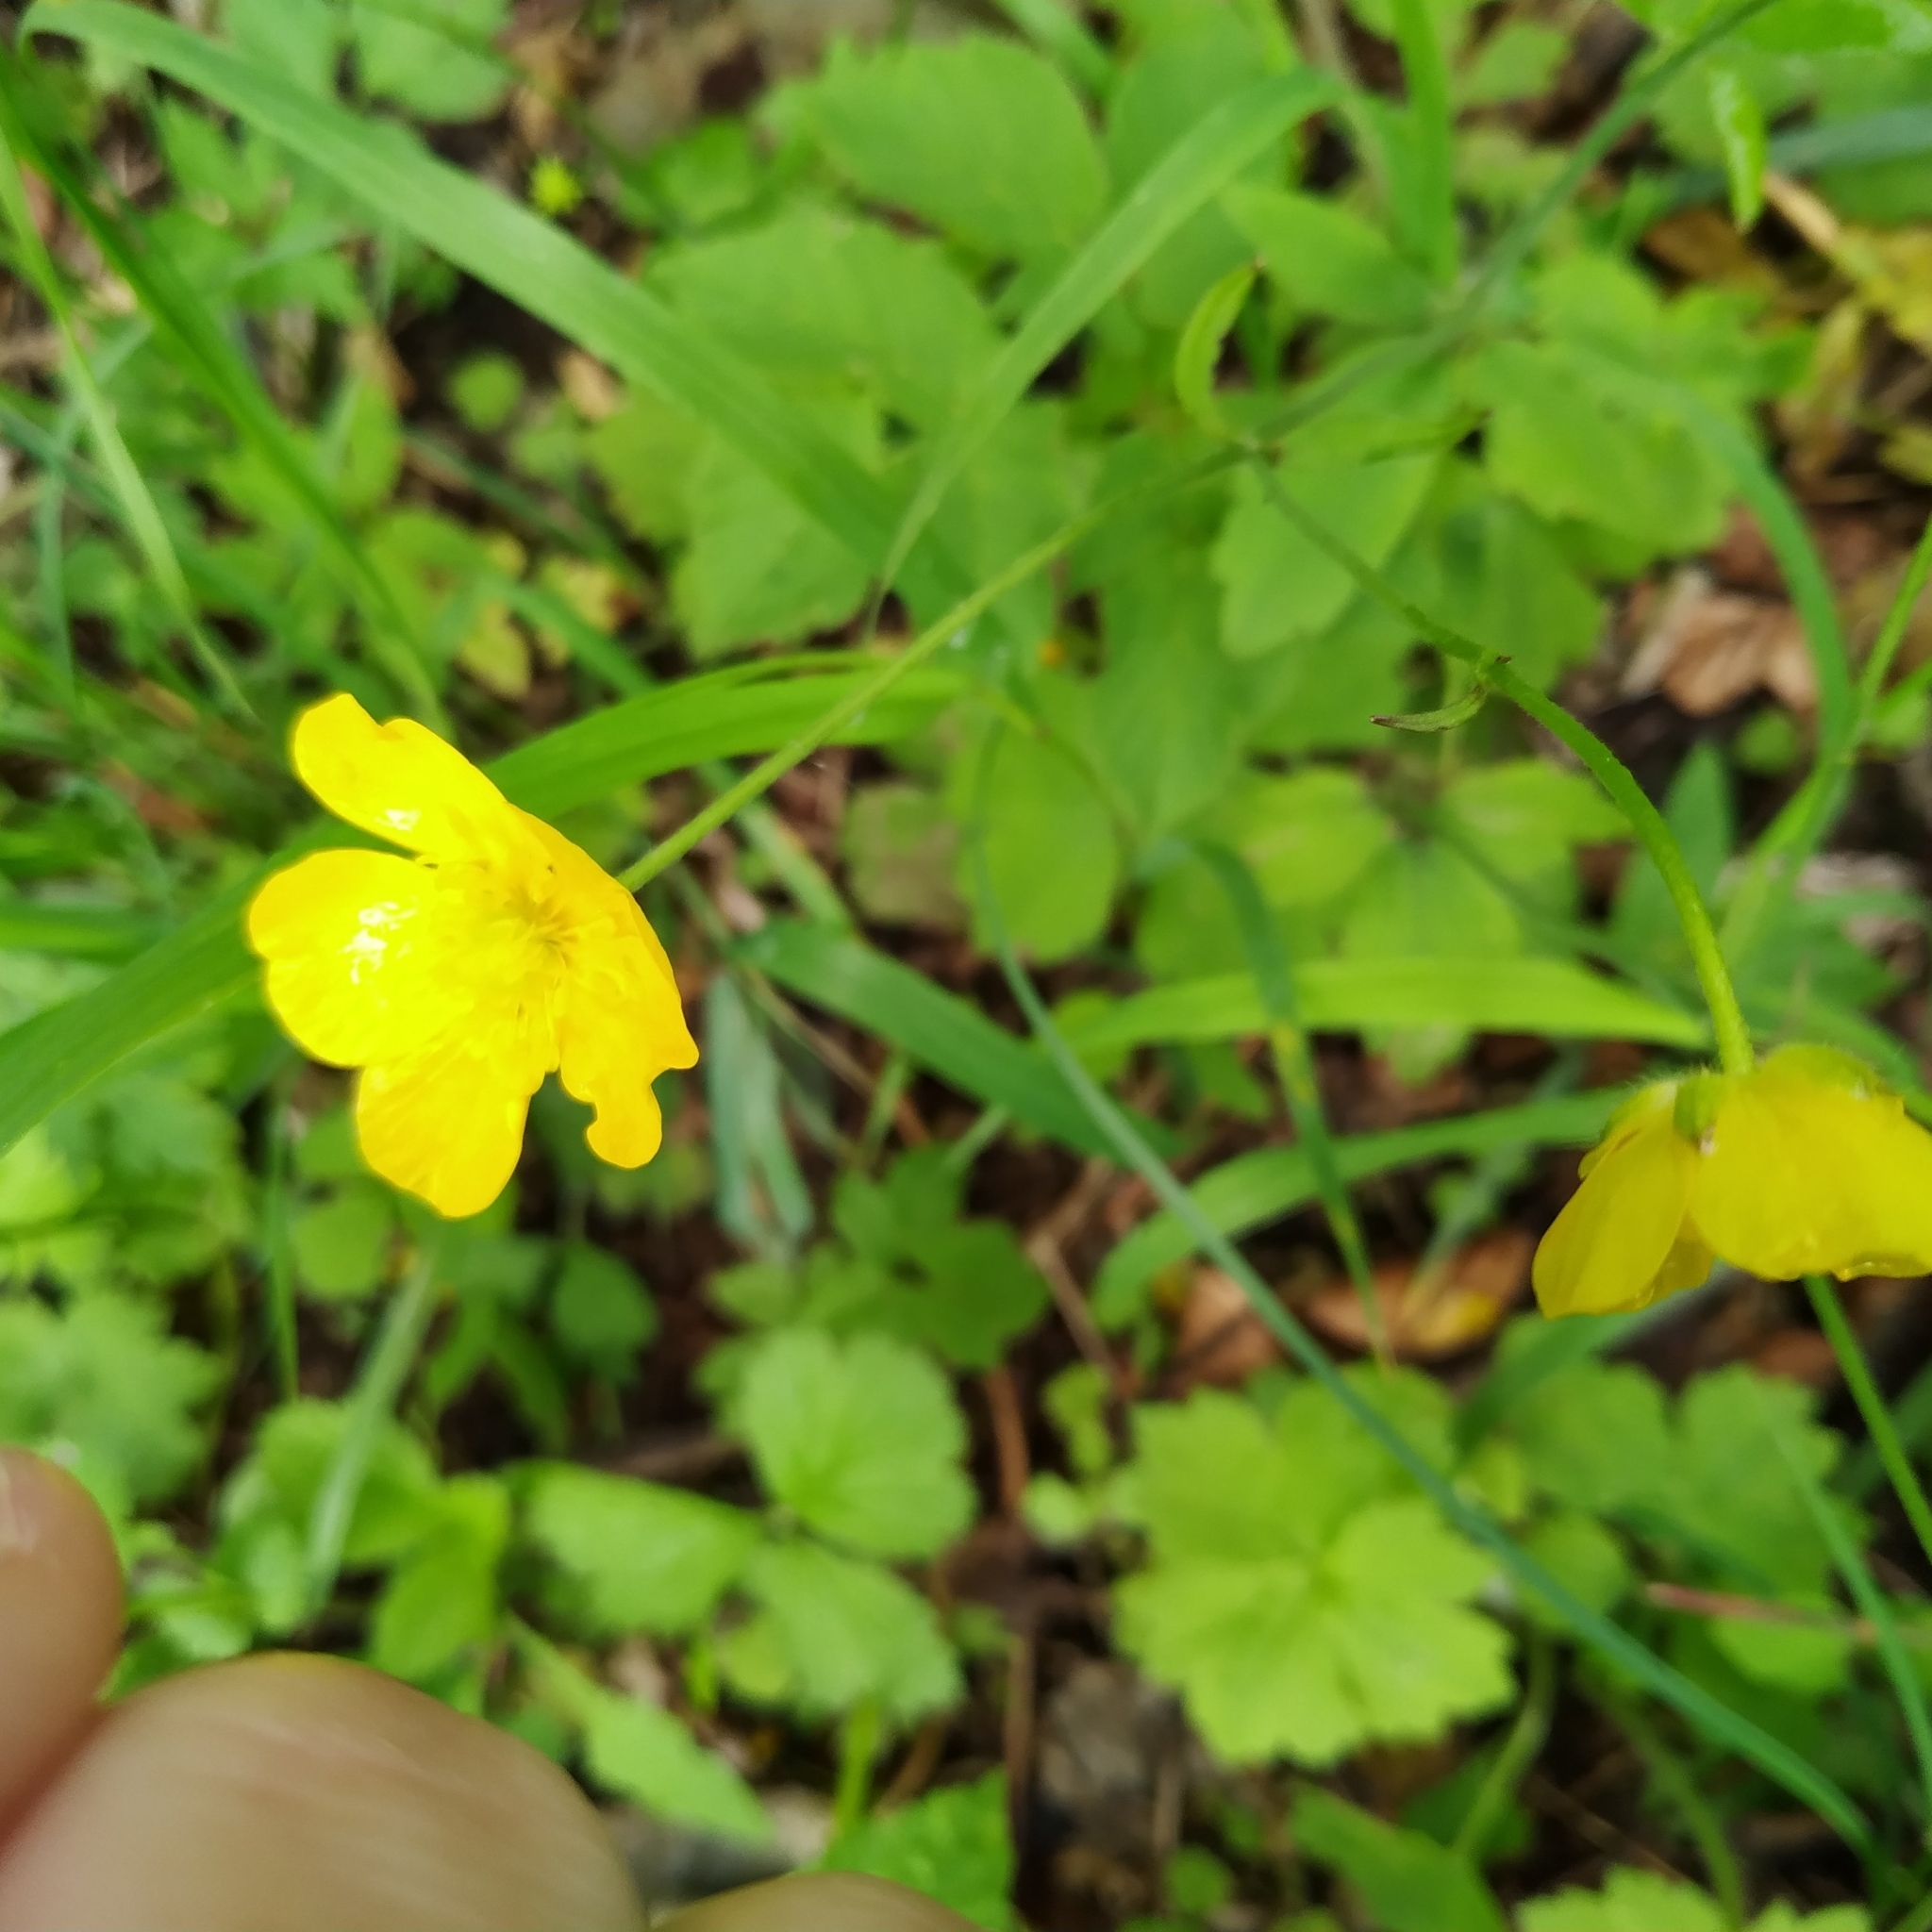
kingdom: Plantae
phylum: Tracheophyta
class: Magnoliopsida
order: Ranunculales
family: Ranunculaceae
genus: Ranunculus
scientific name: Ranunculus lanuginosus
